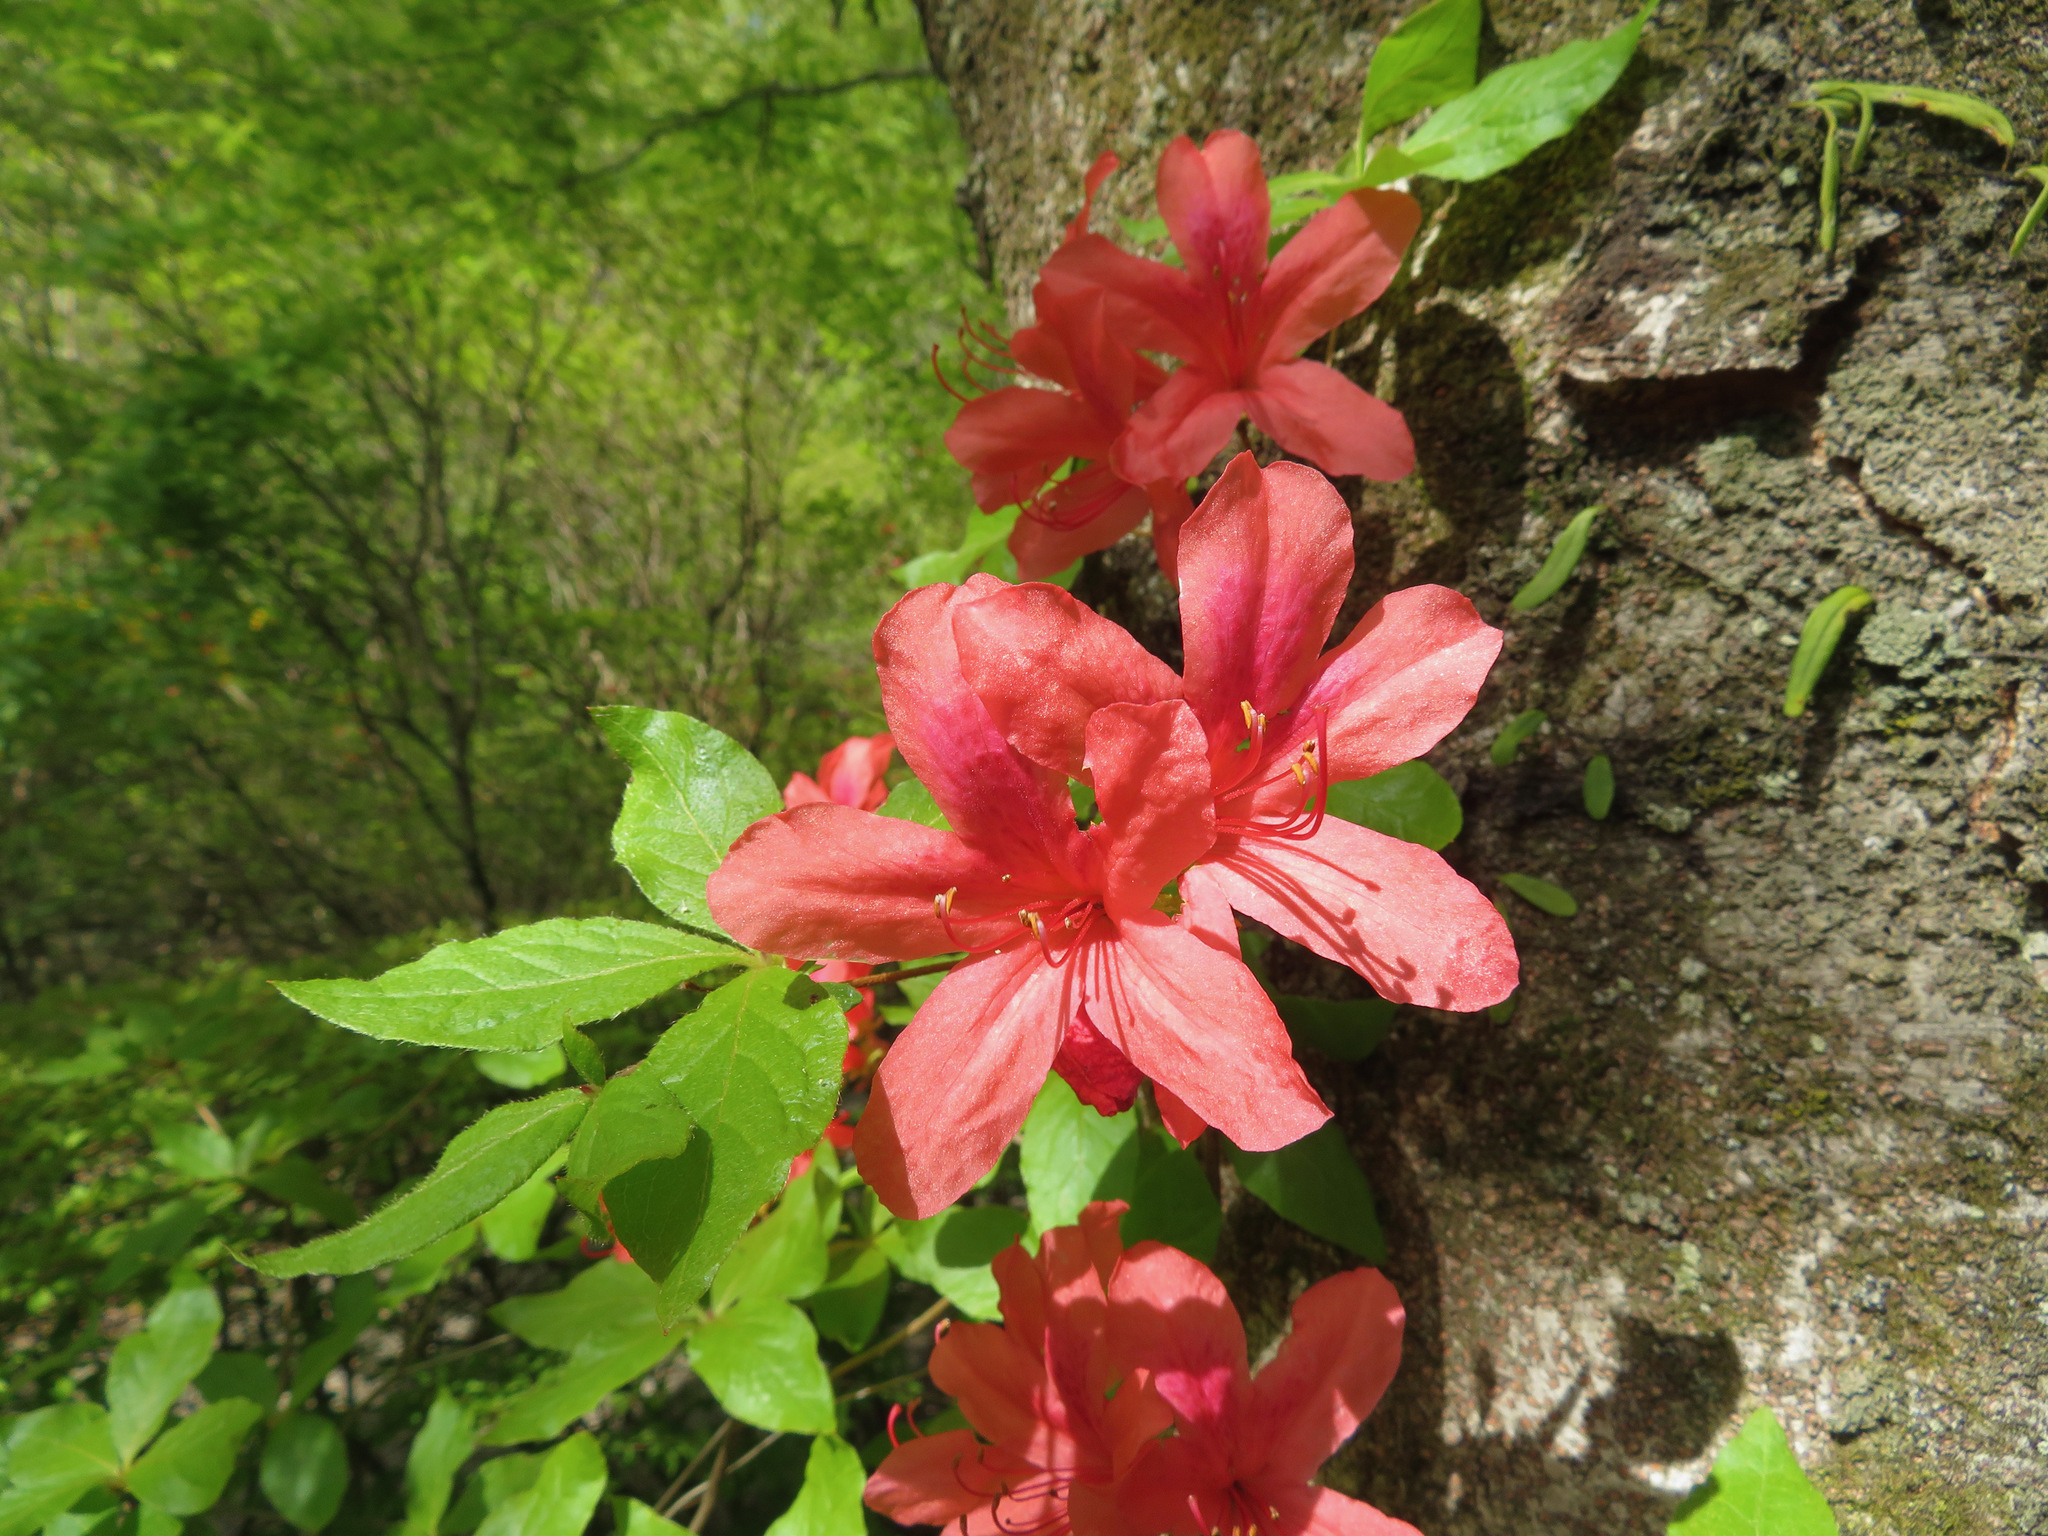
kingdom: Plantae
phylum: Tracheophyta
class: Magnoliopsida
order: Ericales
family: Ericaceae
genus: Rhododendron
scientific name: Rhododendron kaempferi
